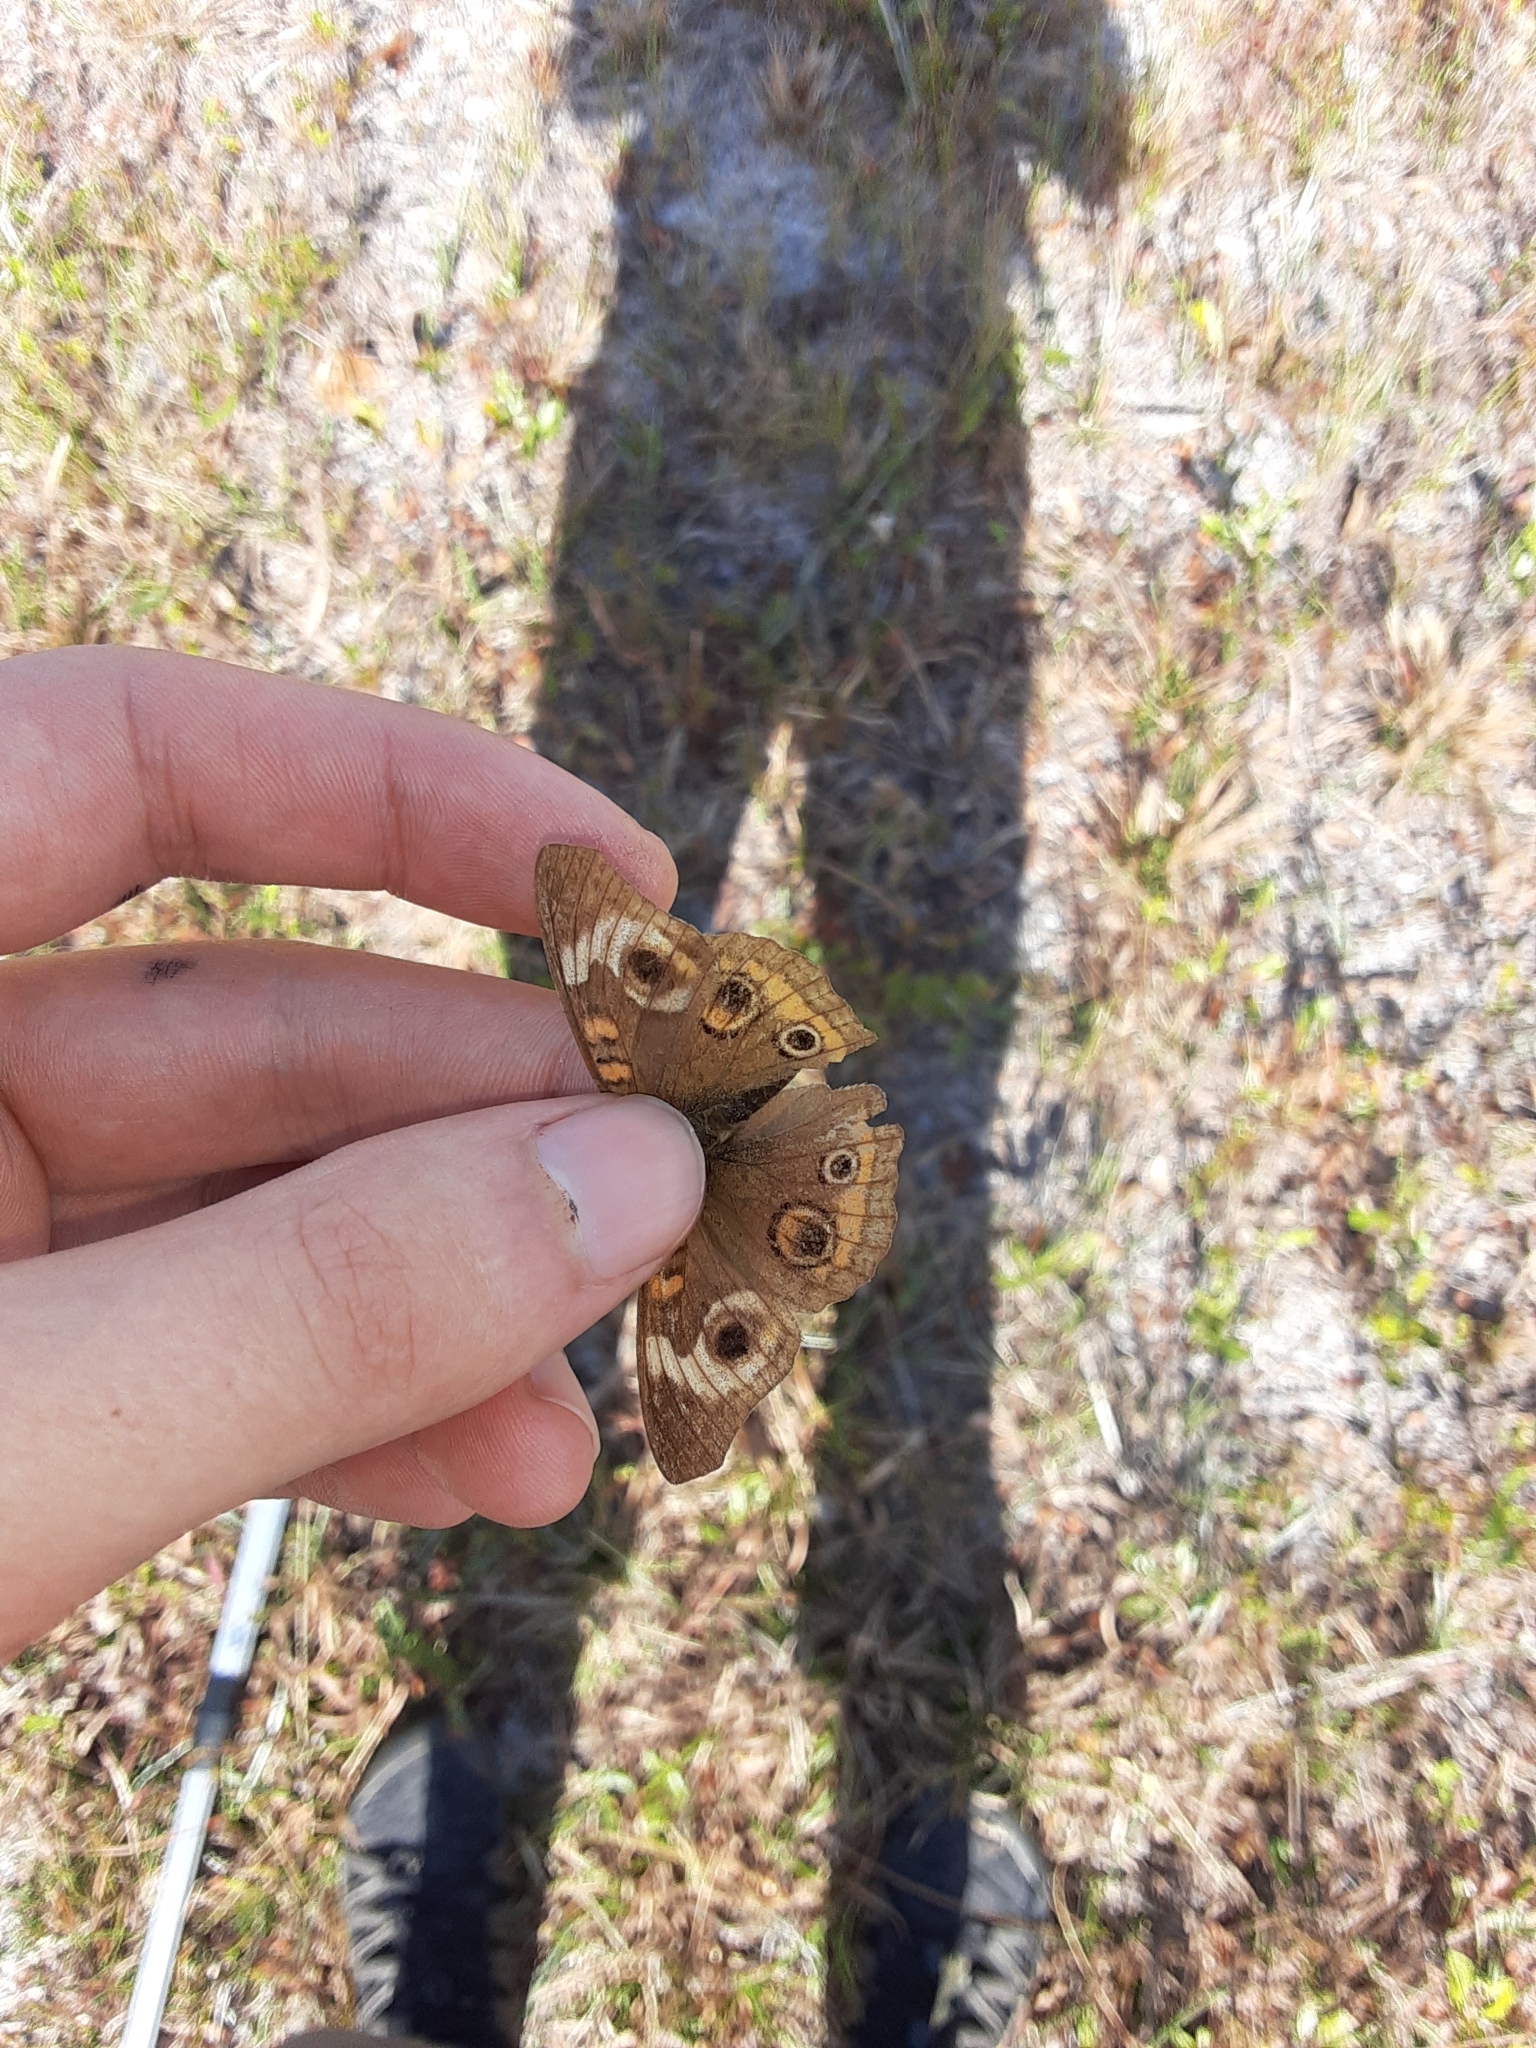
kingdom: Animalia
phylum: Arthropoda
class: Insecta
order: Lepidoptera
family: Nymphalidae
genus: Junonia
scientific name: Junonia coenia
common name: Common buckeye
